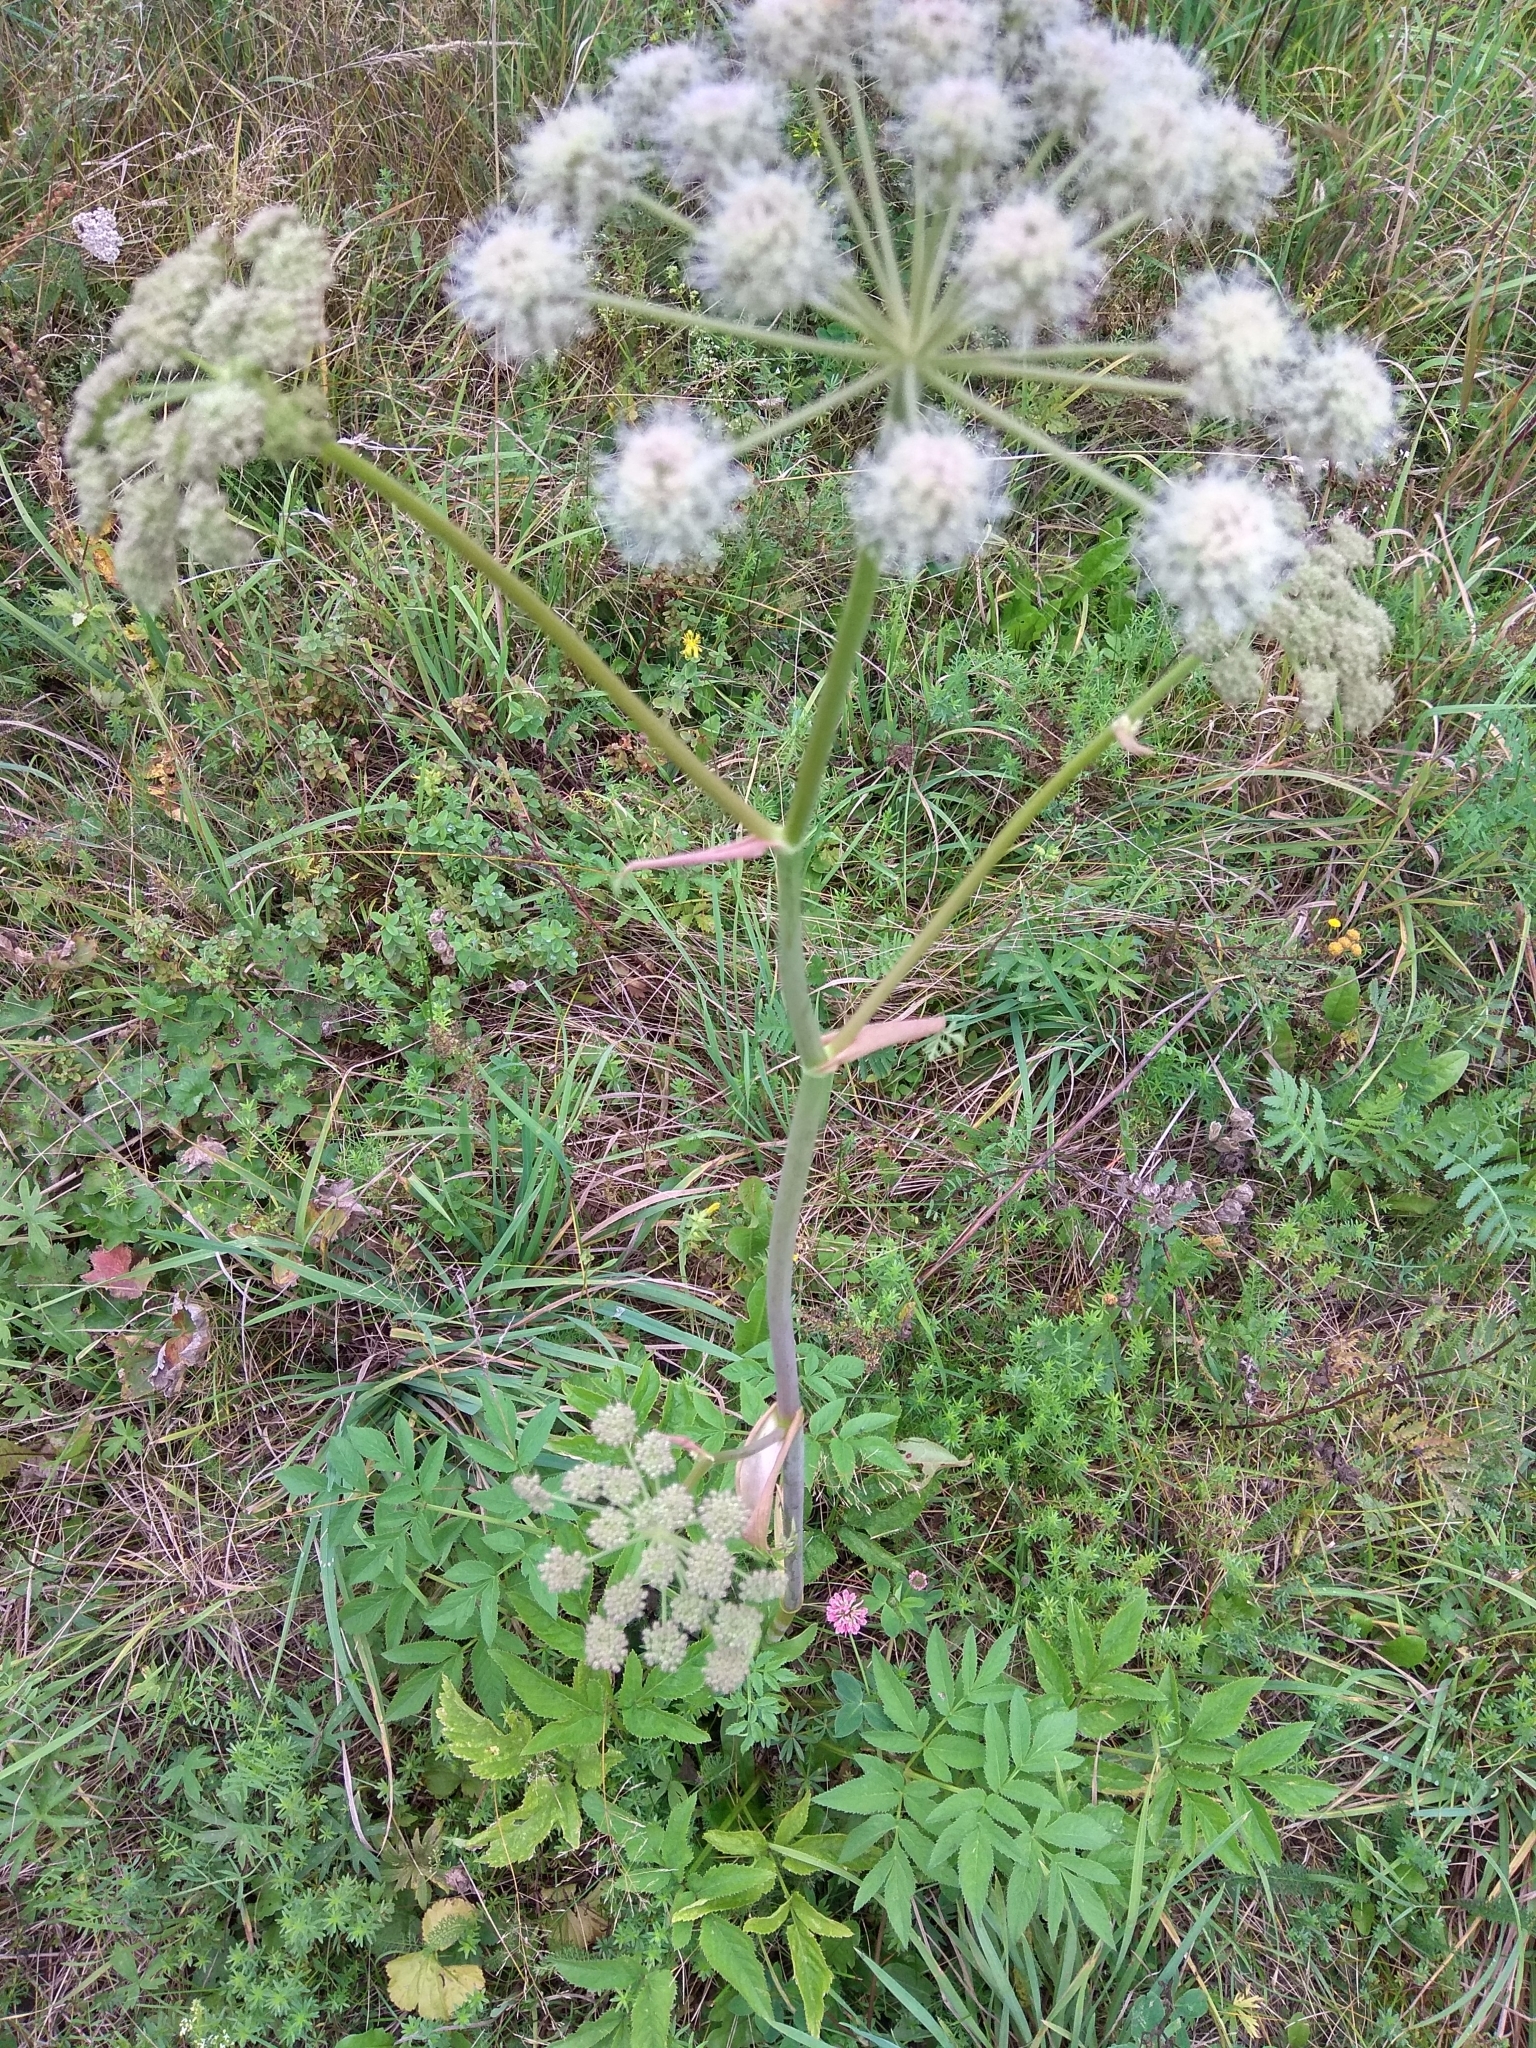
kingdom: Plantae
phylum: Tracheophyta
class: Magnoliopsida
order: Apiales
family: Apiaceae
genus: Angelica
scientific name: Angelica sylvestris
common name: Wild angelica
